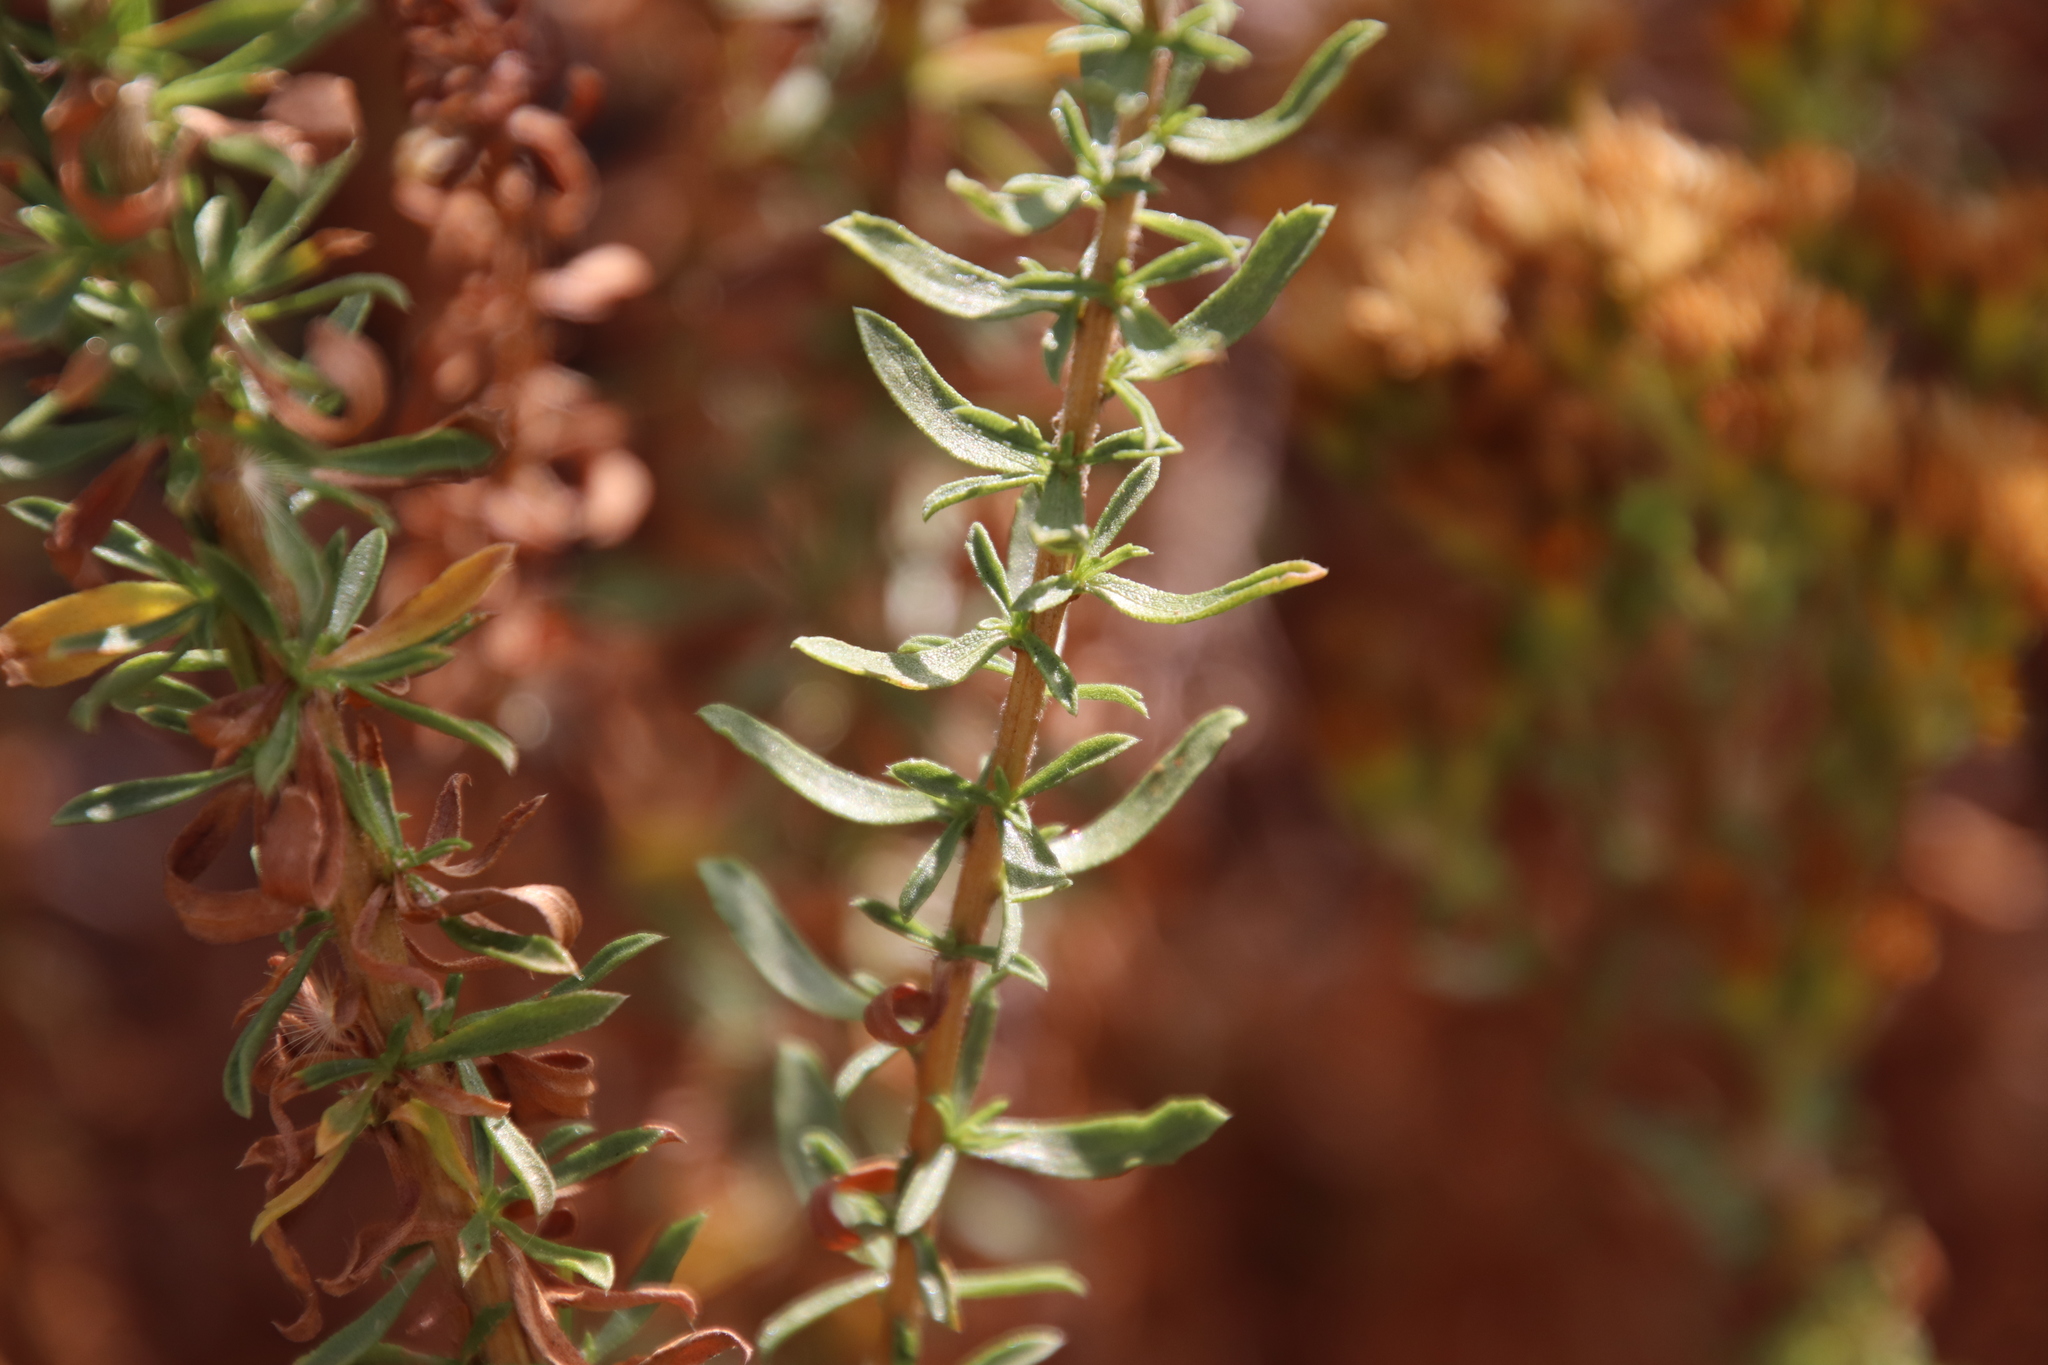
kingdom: Plantae
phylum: Tracheophyta
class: Magnoliopsida
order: Asterales
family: Asteraceae
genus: Isocoma
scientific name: Isocoma menziesii
